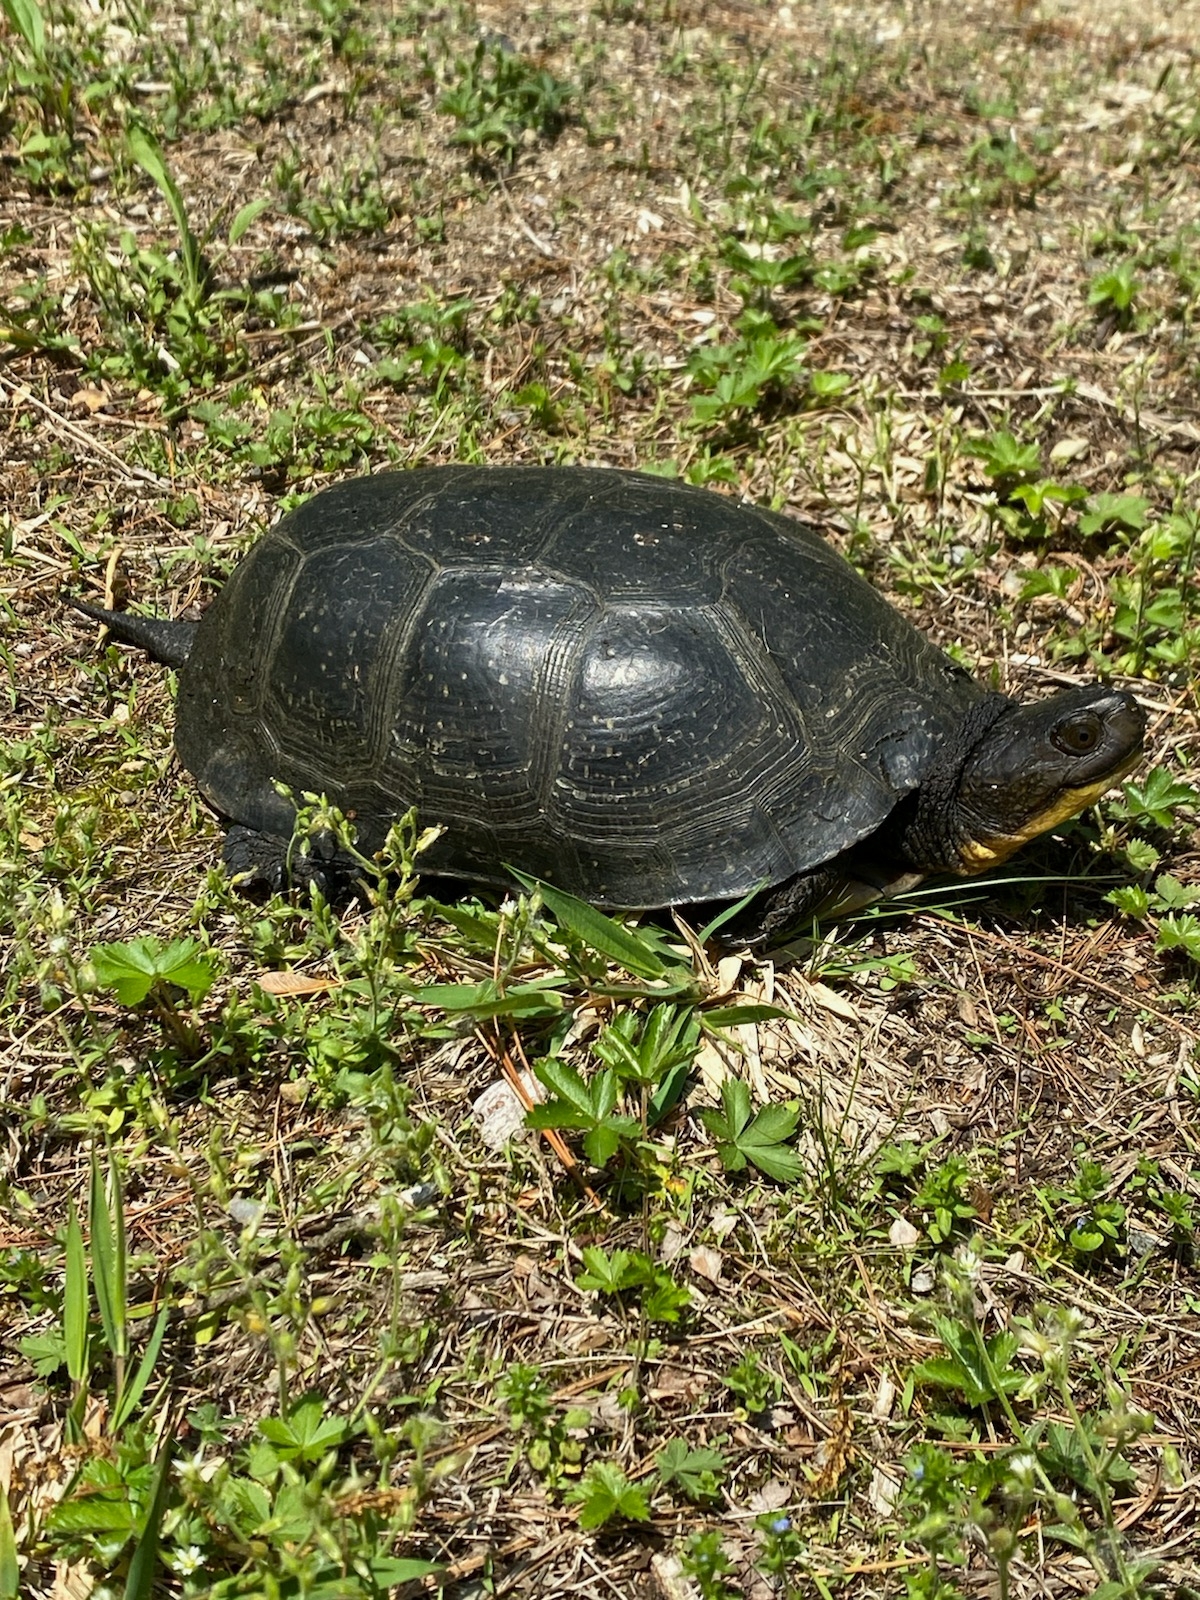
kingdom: Animalia
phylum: Chordata
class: Testudines
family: Emydidae
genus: Emys
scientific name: Emys blandingii
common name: Blanding's turtle
